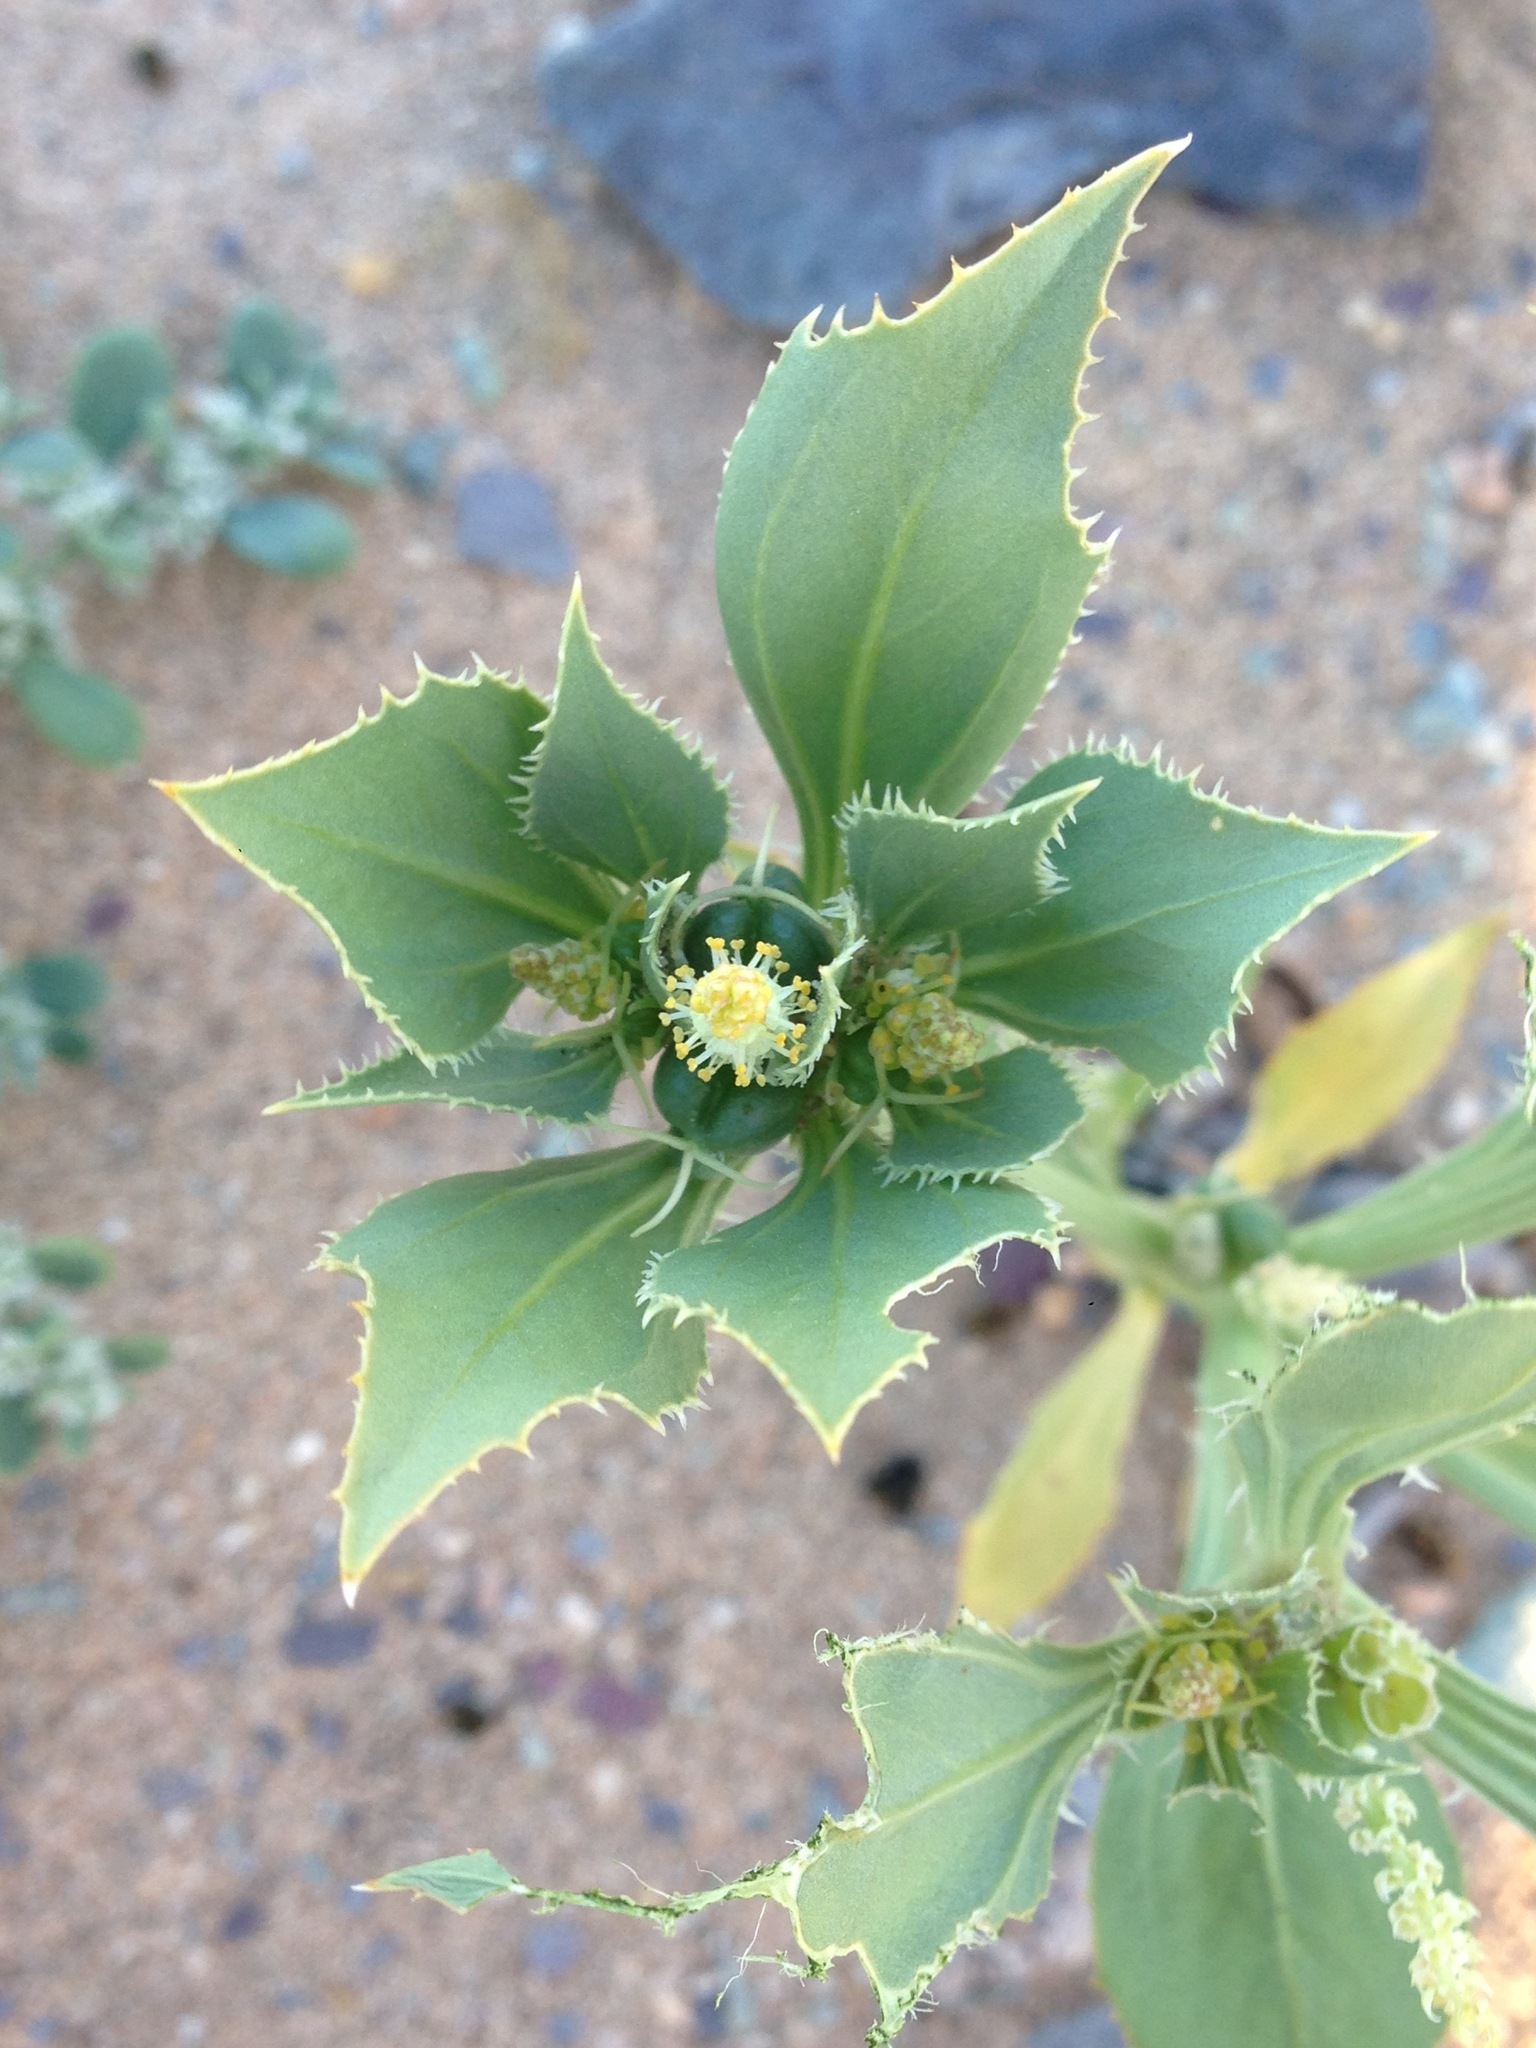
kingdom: Plantae
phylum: Tracheophyta
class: Magnoliopsida
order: Malpighiales
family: Euphorbiaceae
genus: Stillingia
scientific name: Stillingia spinulosa
